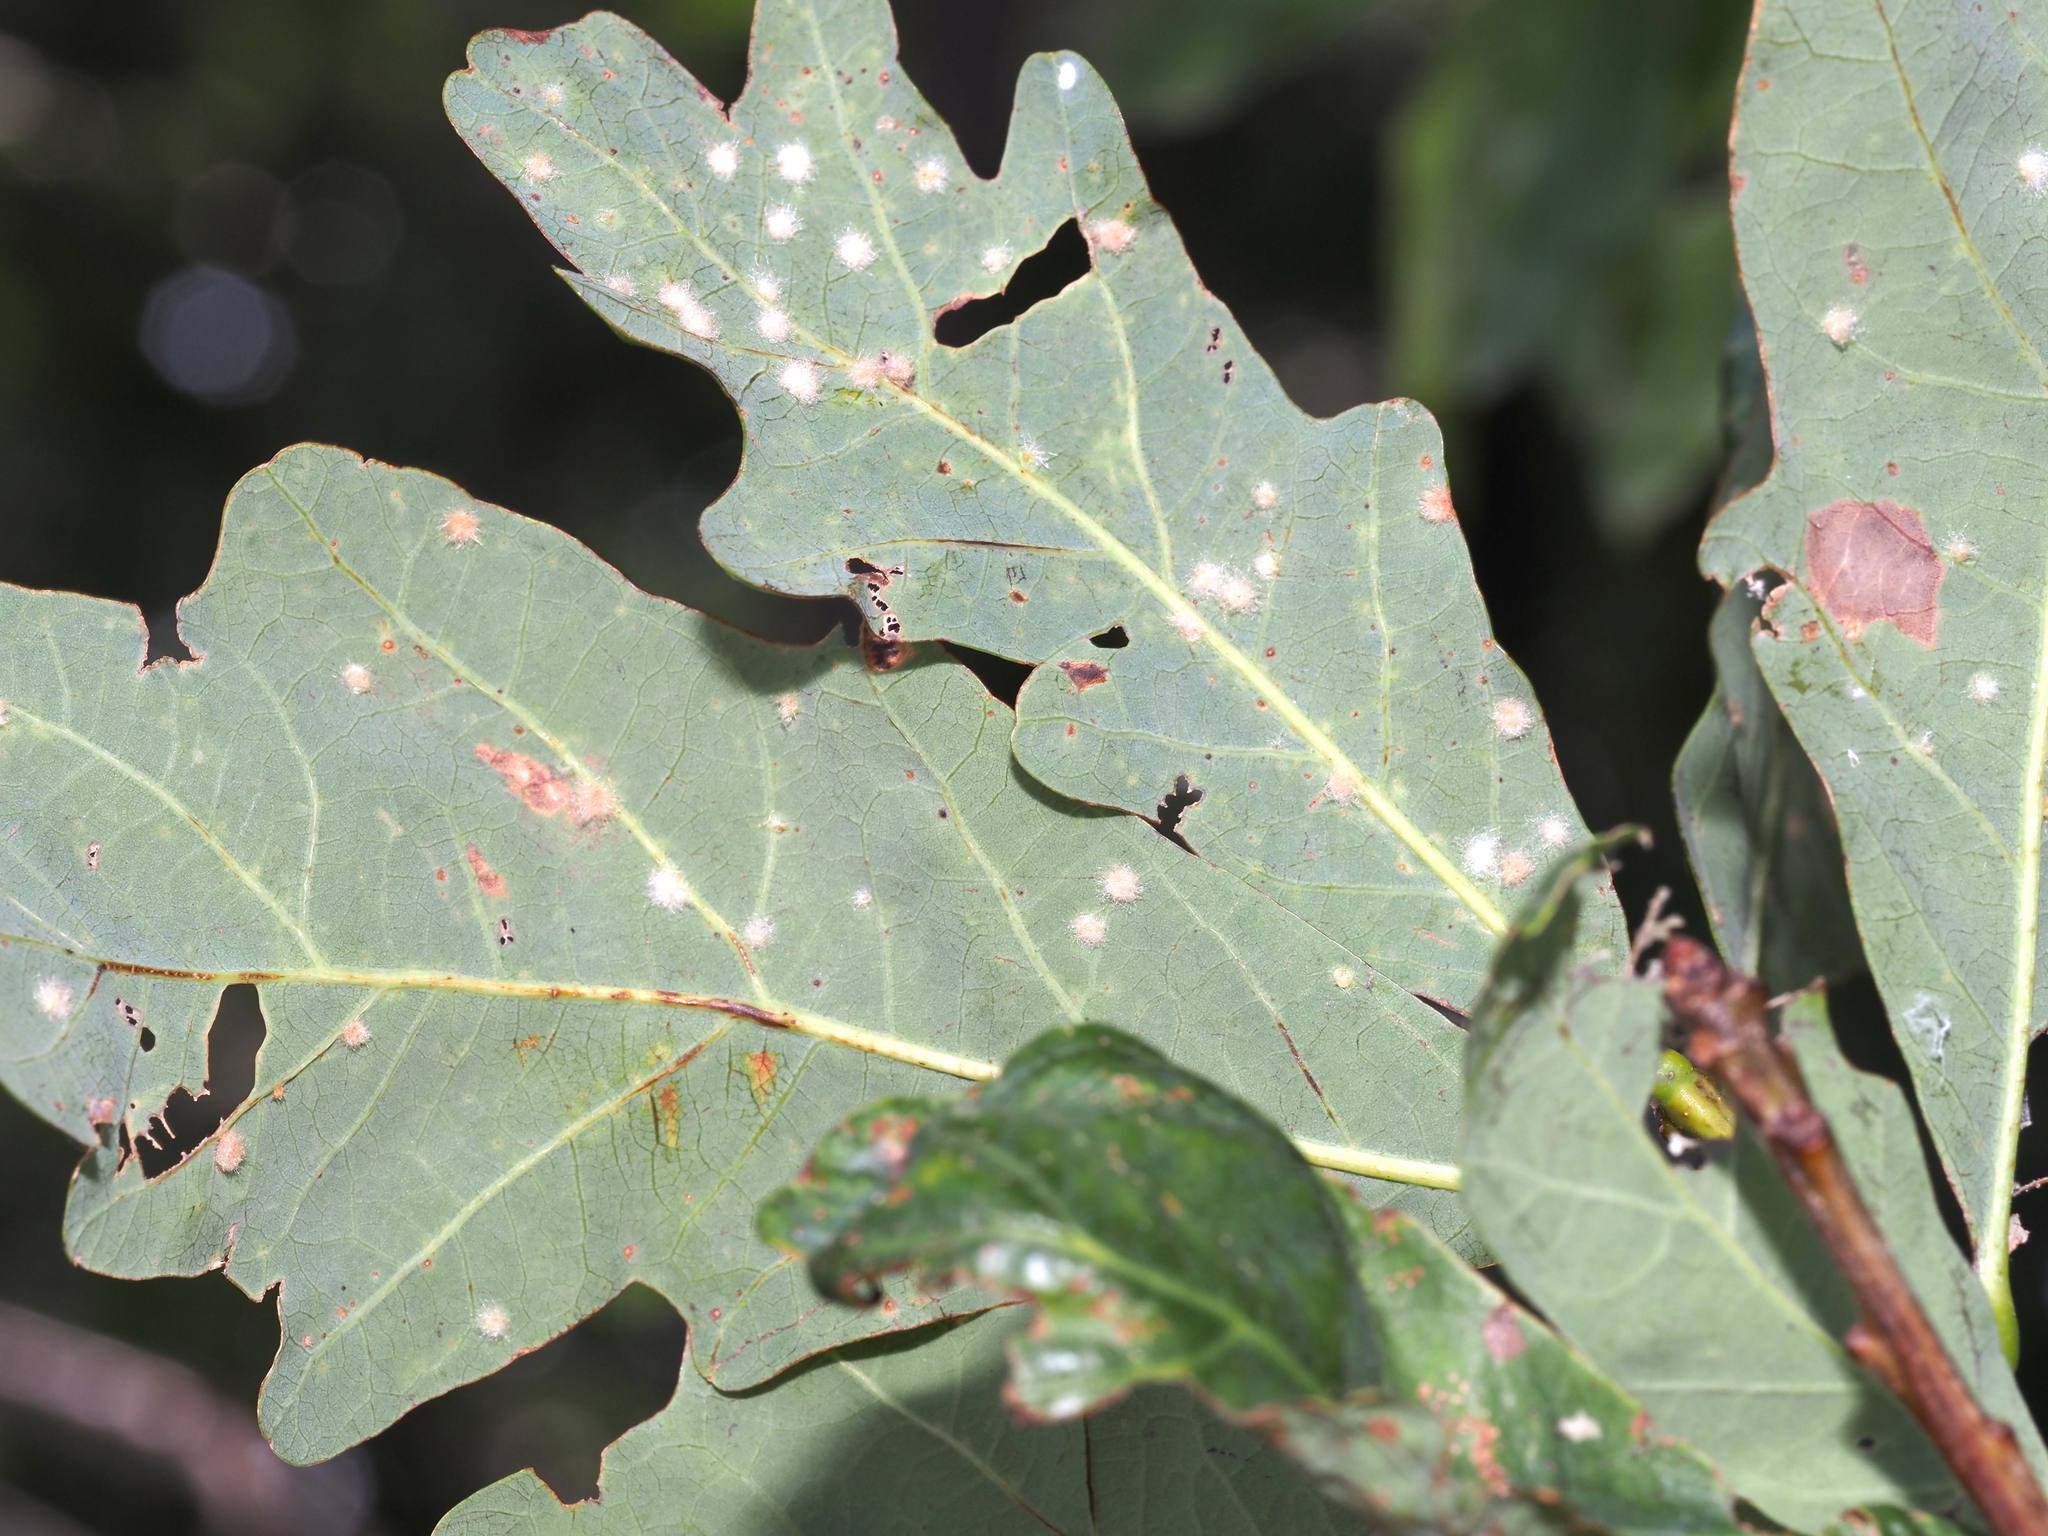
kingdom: Animalia
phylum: Arthropoda
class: Insecta
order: Hymenoptera
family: Cynipidae
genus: Neuroterus
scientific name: Neuroterus quercusverrucarum
